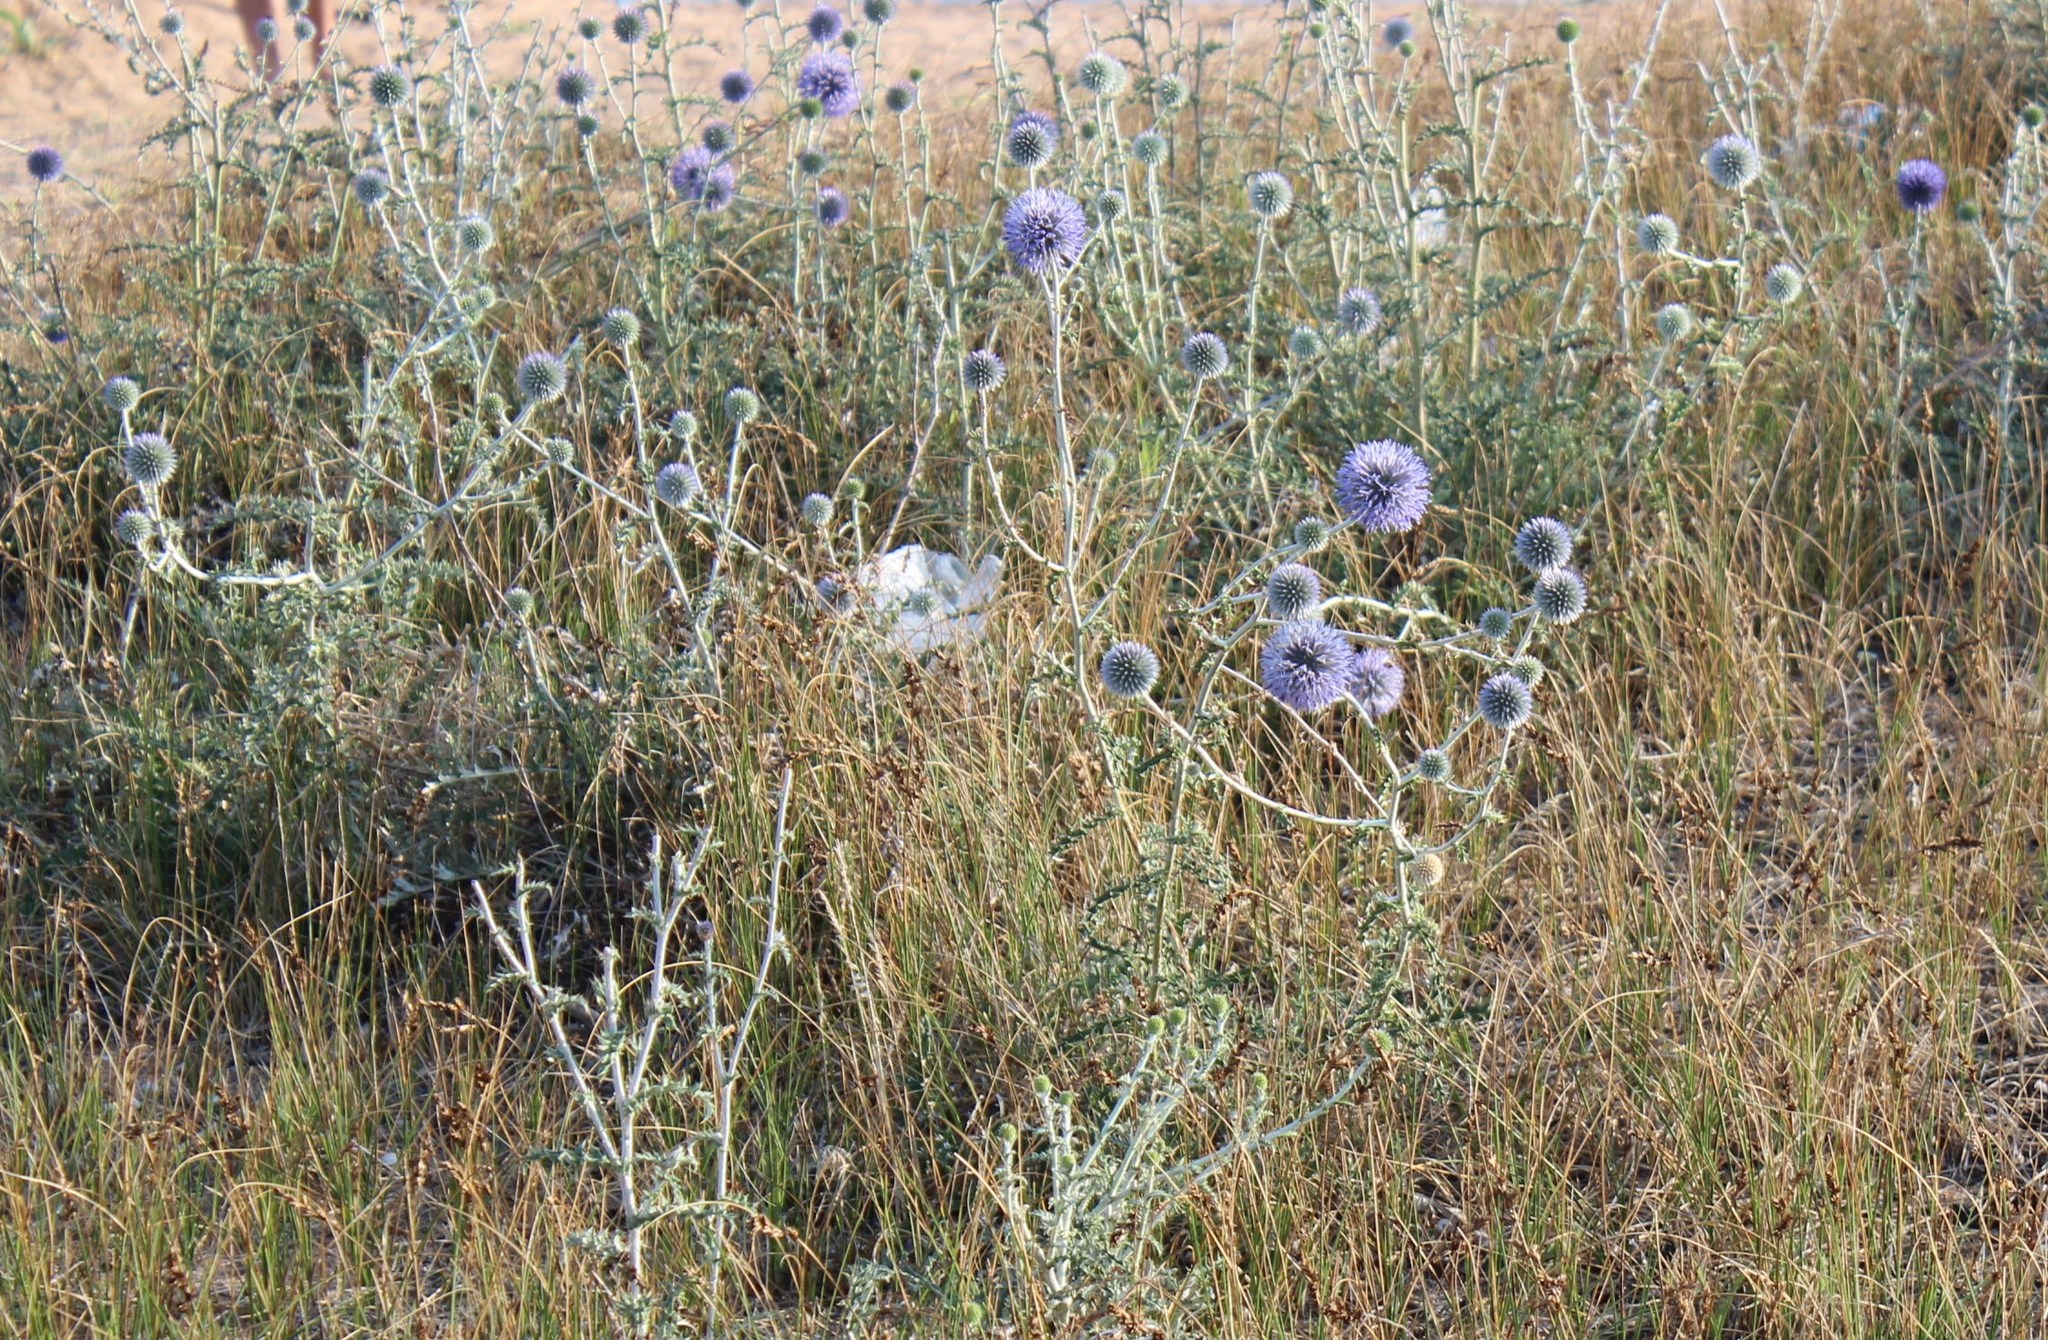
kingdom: Plantae
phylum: Tracheophyta
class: Magnoliopsida
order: Asterales
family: Asteraceae
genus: Echinops
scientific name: Echinops ritro
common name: Globe thistle
